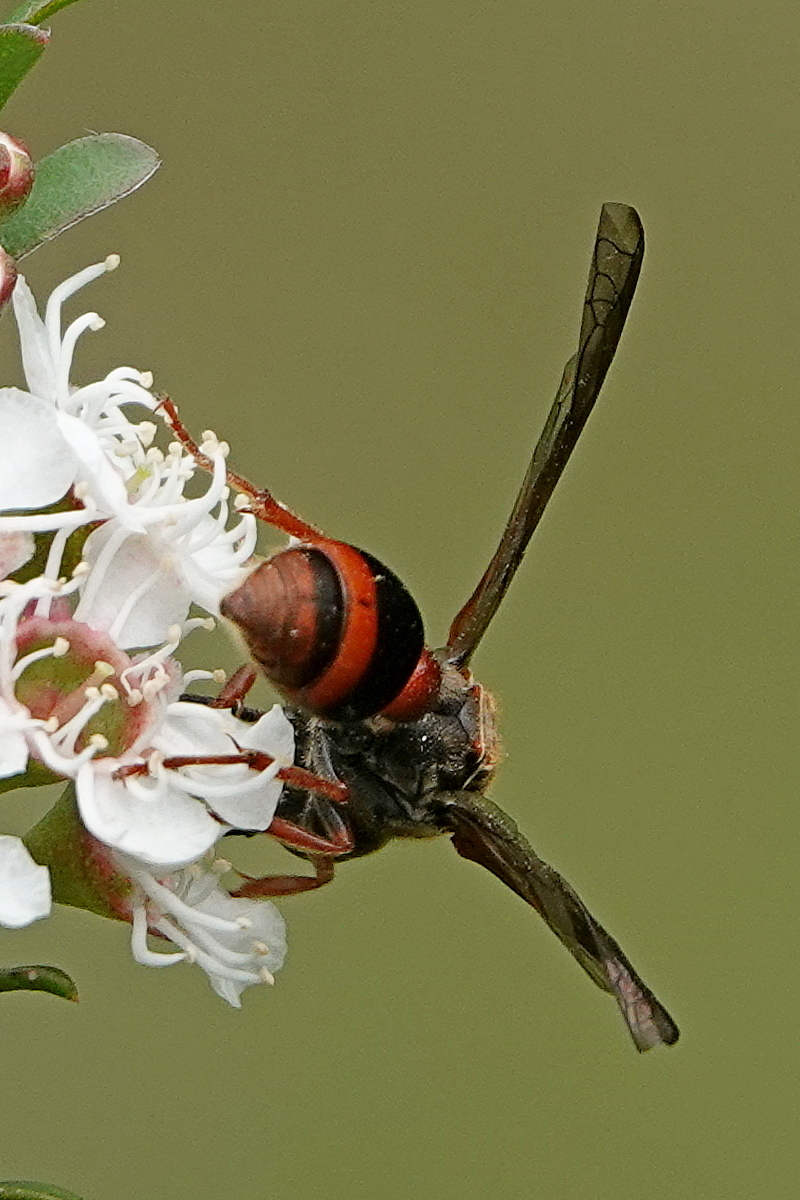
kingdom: Animalia
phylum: Arthropoda
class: Insecta
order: Hymenoptera
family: Eumenidae
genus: Deuterodiscoelius
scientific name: Deuterodiscoelius pseudospinosus
